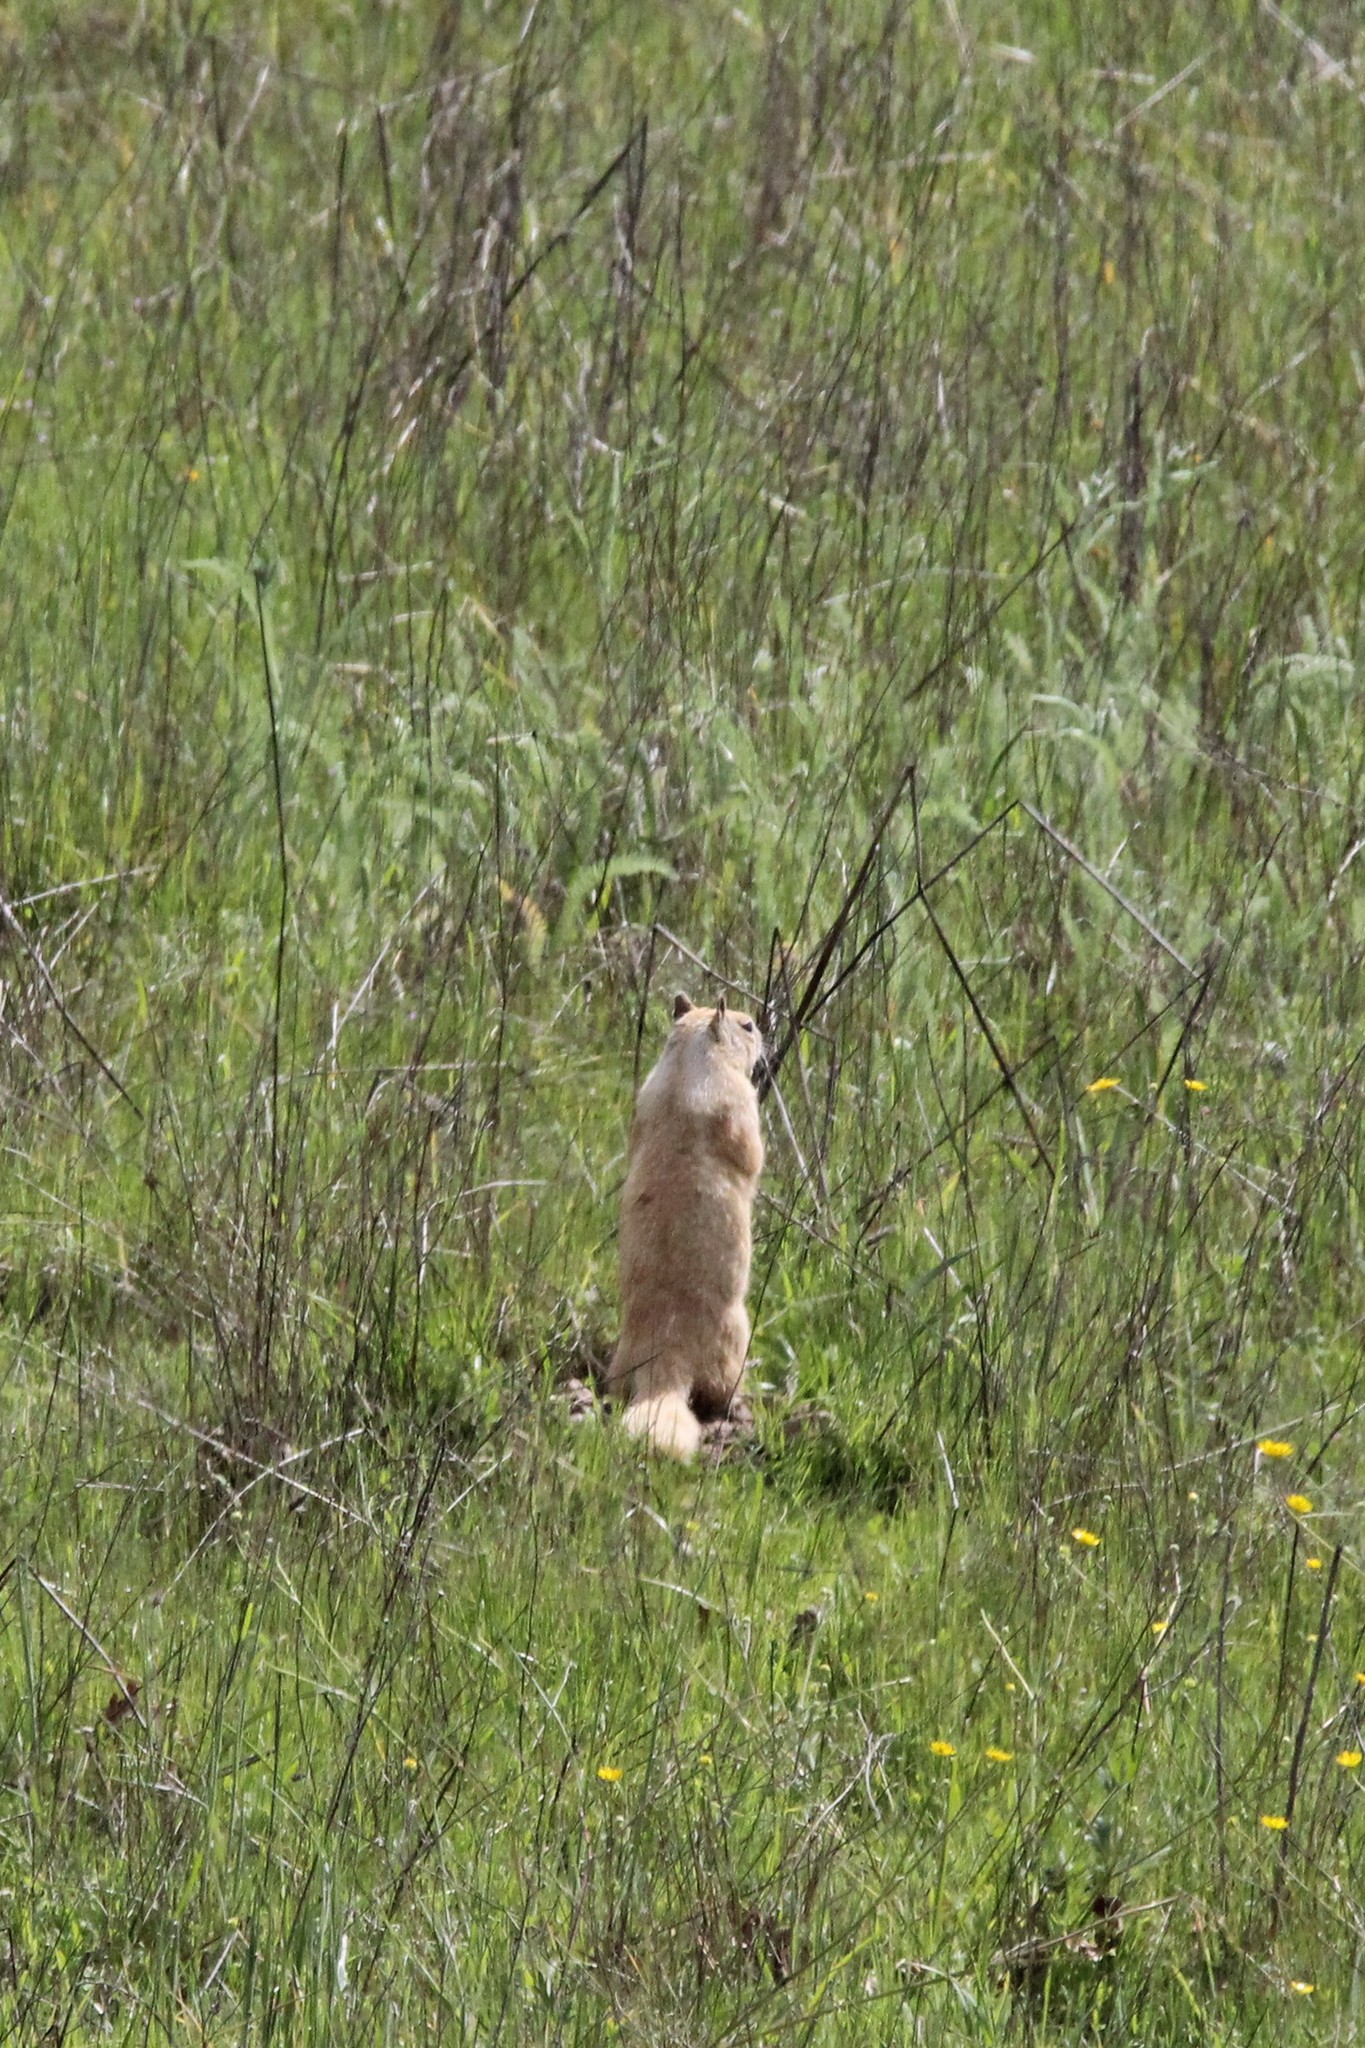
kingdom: Animalia
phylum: Chordata
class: Mammalia
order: Rodentia
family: Sciuridae
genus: Otospermophilus
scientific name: Otospermophilus beecheyi
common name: California ground squirrel
